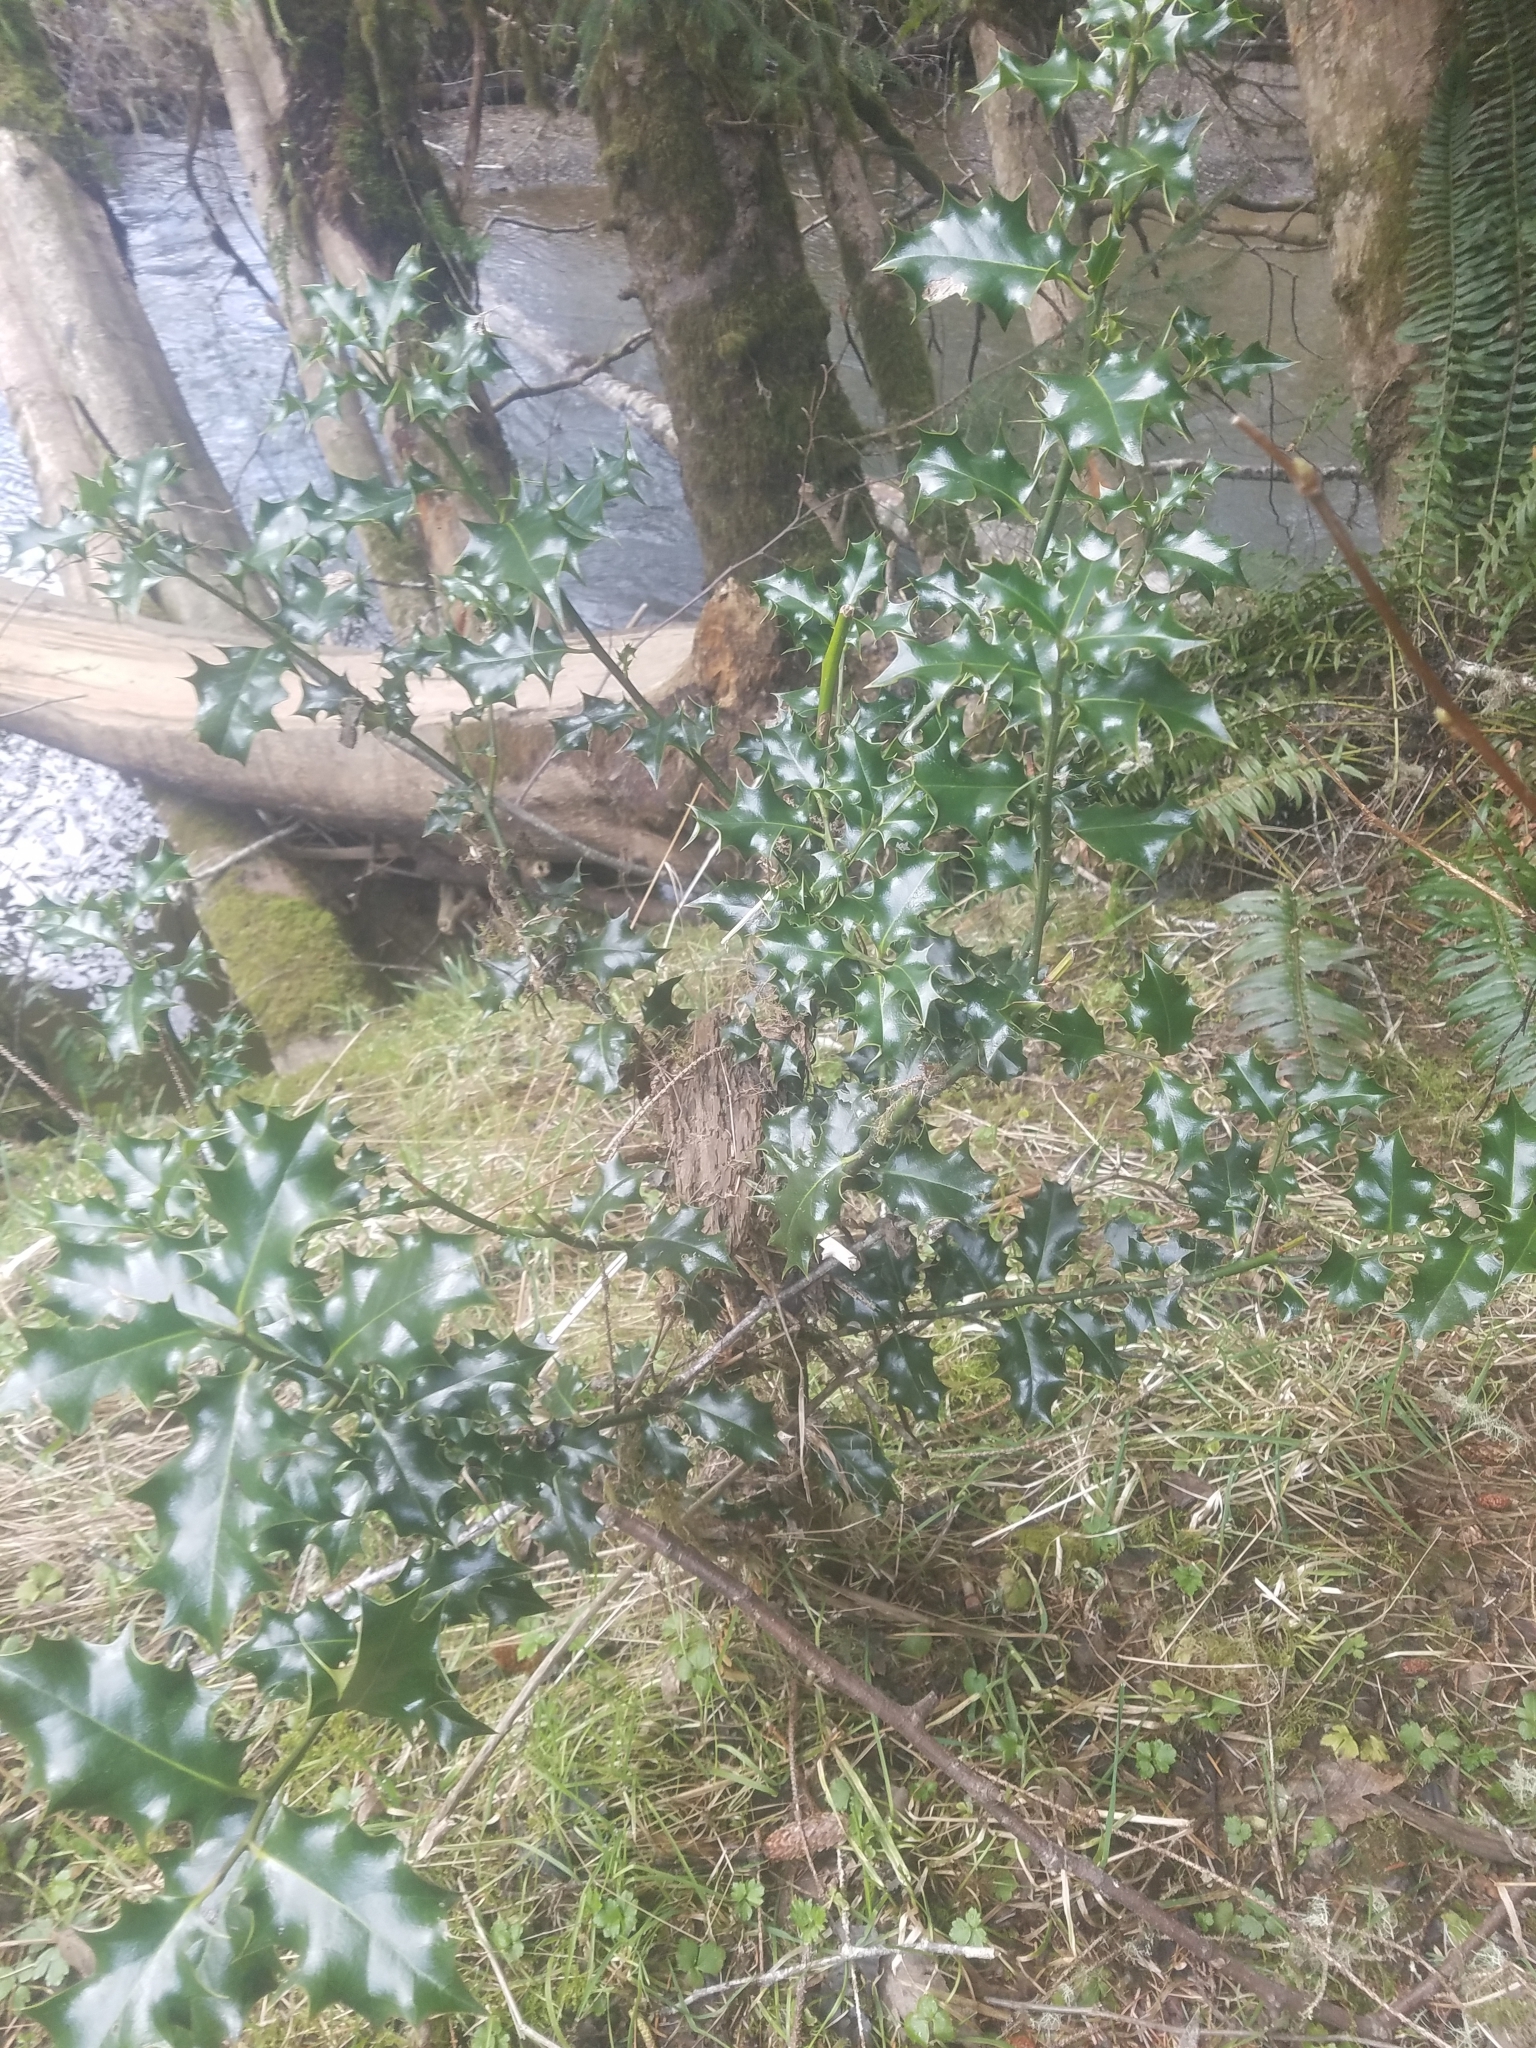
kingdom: Plantae
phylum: Tracheophyta
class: Magnoliopsida
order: Aquifoliales
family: Aquifoliaceae
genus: Ilex
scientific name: Ilex aquifolium
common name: English holly
